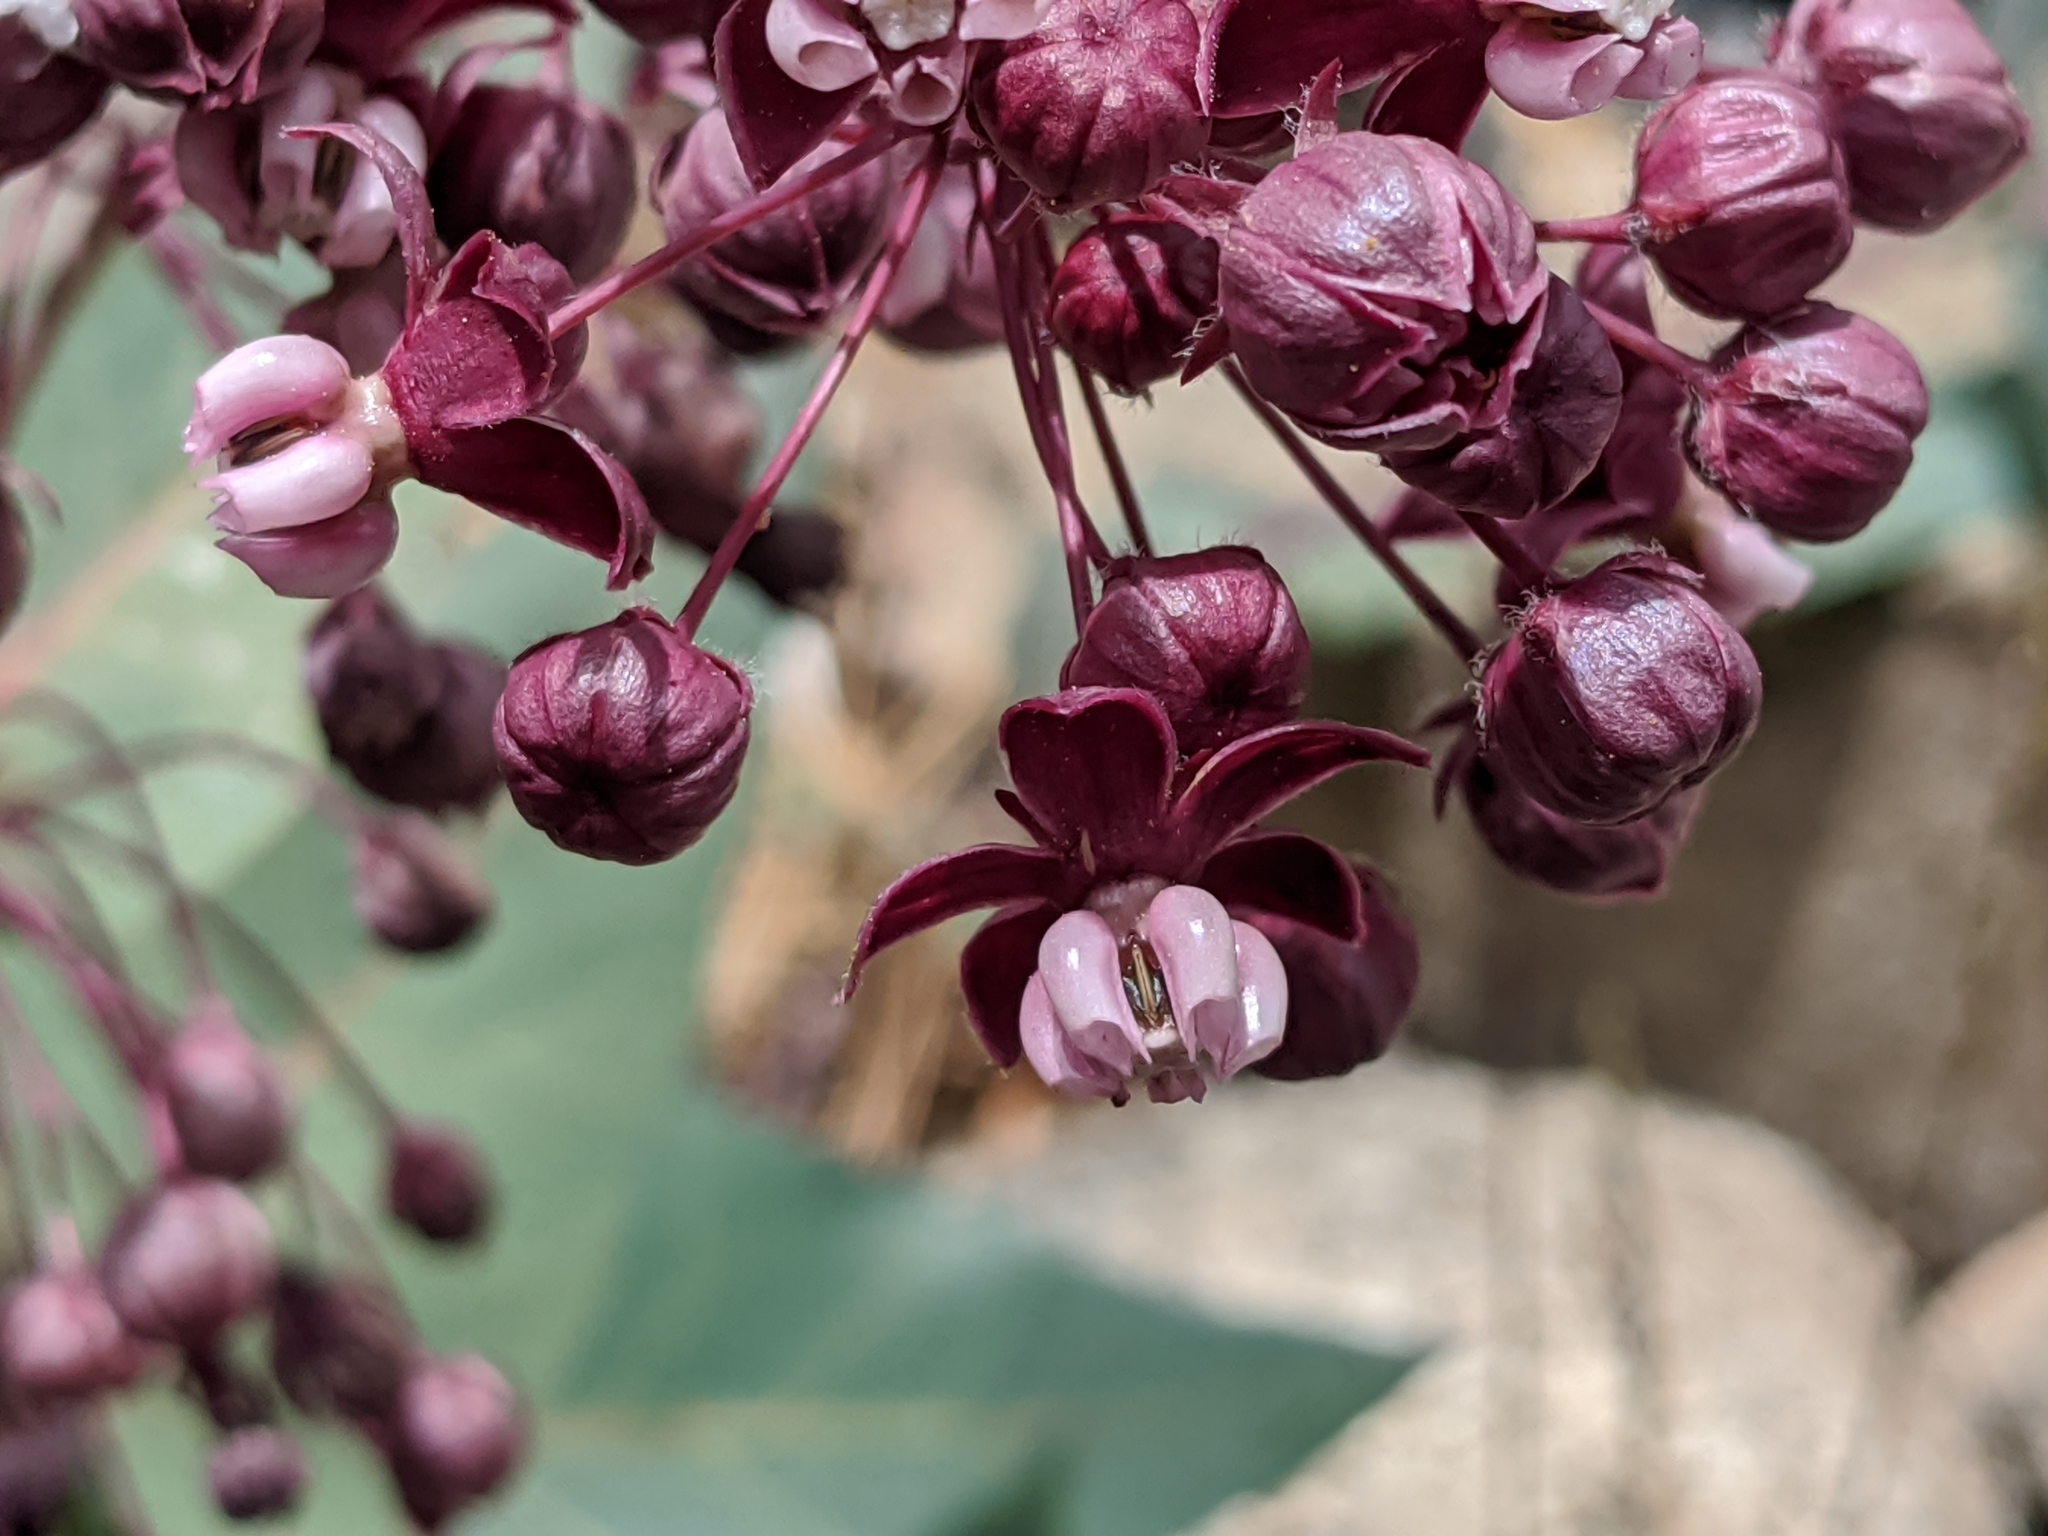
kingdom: Plantae
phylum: Tracheophyta
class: Magnoliopsida
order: Gentianales
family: Apocynaceae
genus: Asclepias
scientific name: Asclepias cordifolia
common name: Purple milkweed
